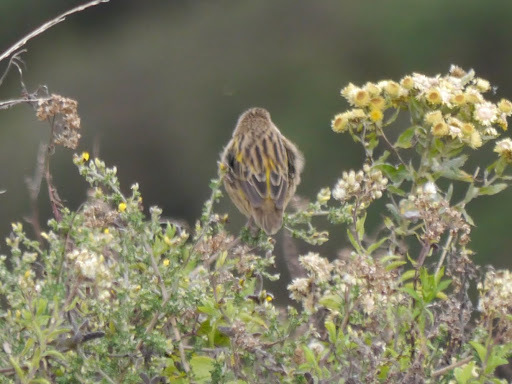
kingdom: Animalia
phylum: Chordata
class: Aves
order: Passeriformes
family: Ploceidae
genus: Euplectes
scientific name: Euplectes capensis
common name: Yellow bishop
